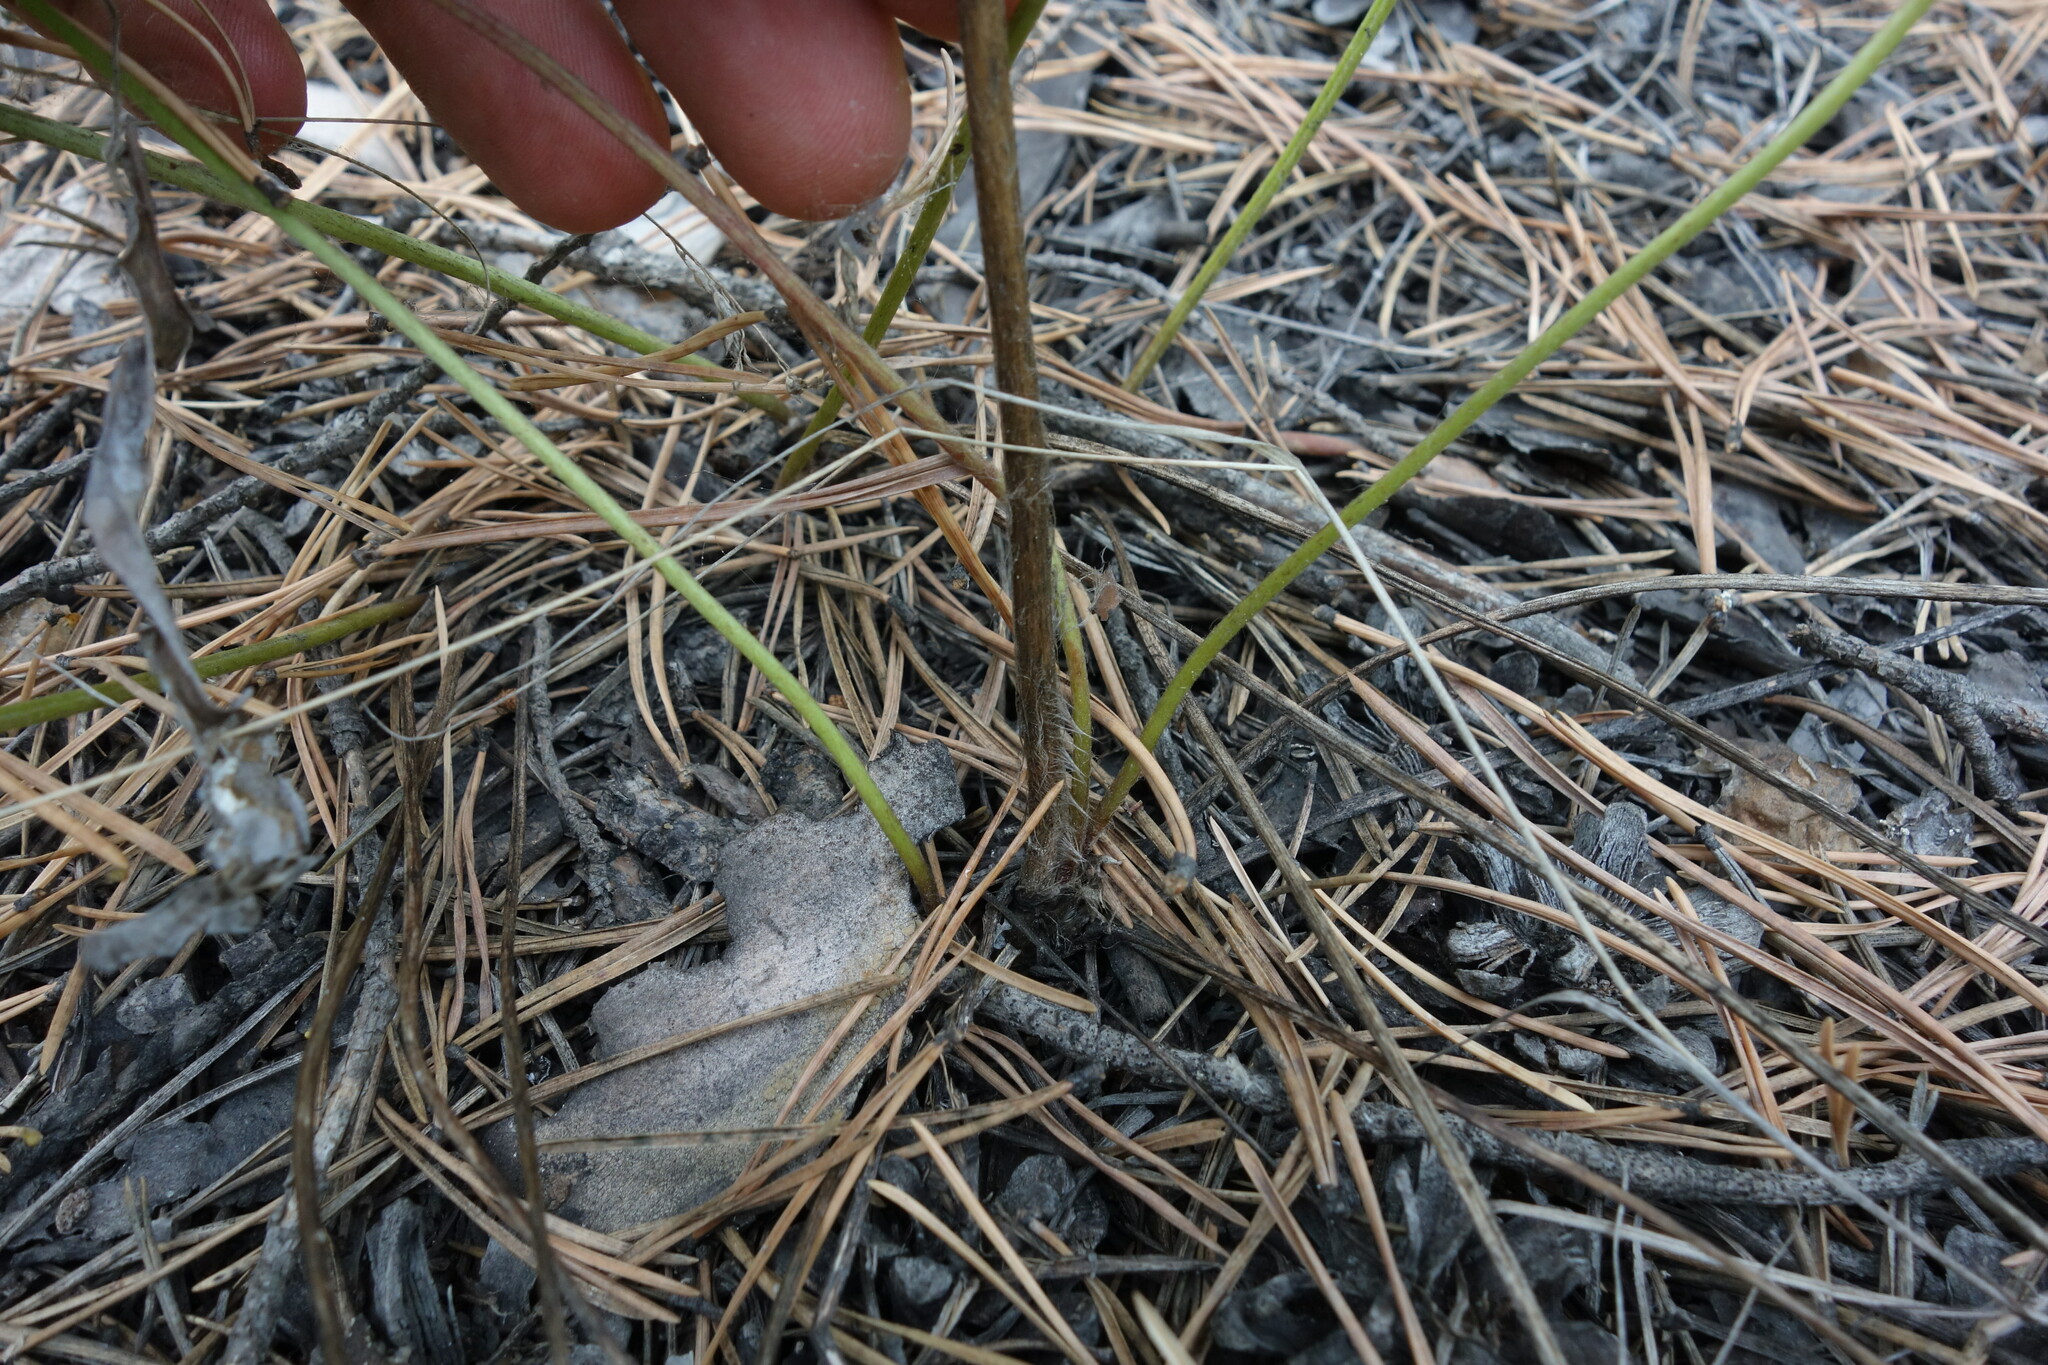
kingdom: Plantae
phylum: Tracheophyta
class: Magnoliopsida
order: Ranunculales
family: Ranunculaceae
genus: Pulsatilla
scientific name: Pulsatilla patens
